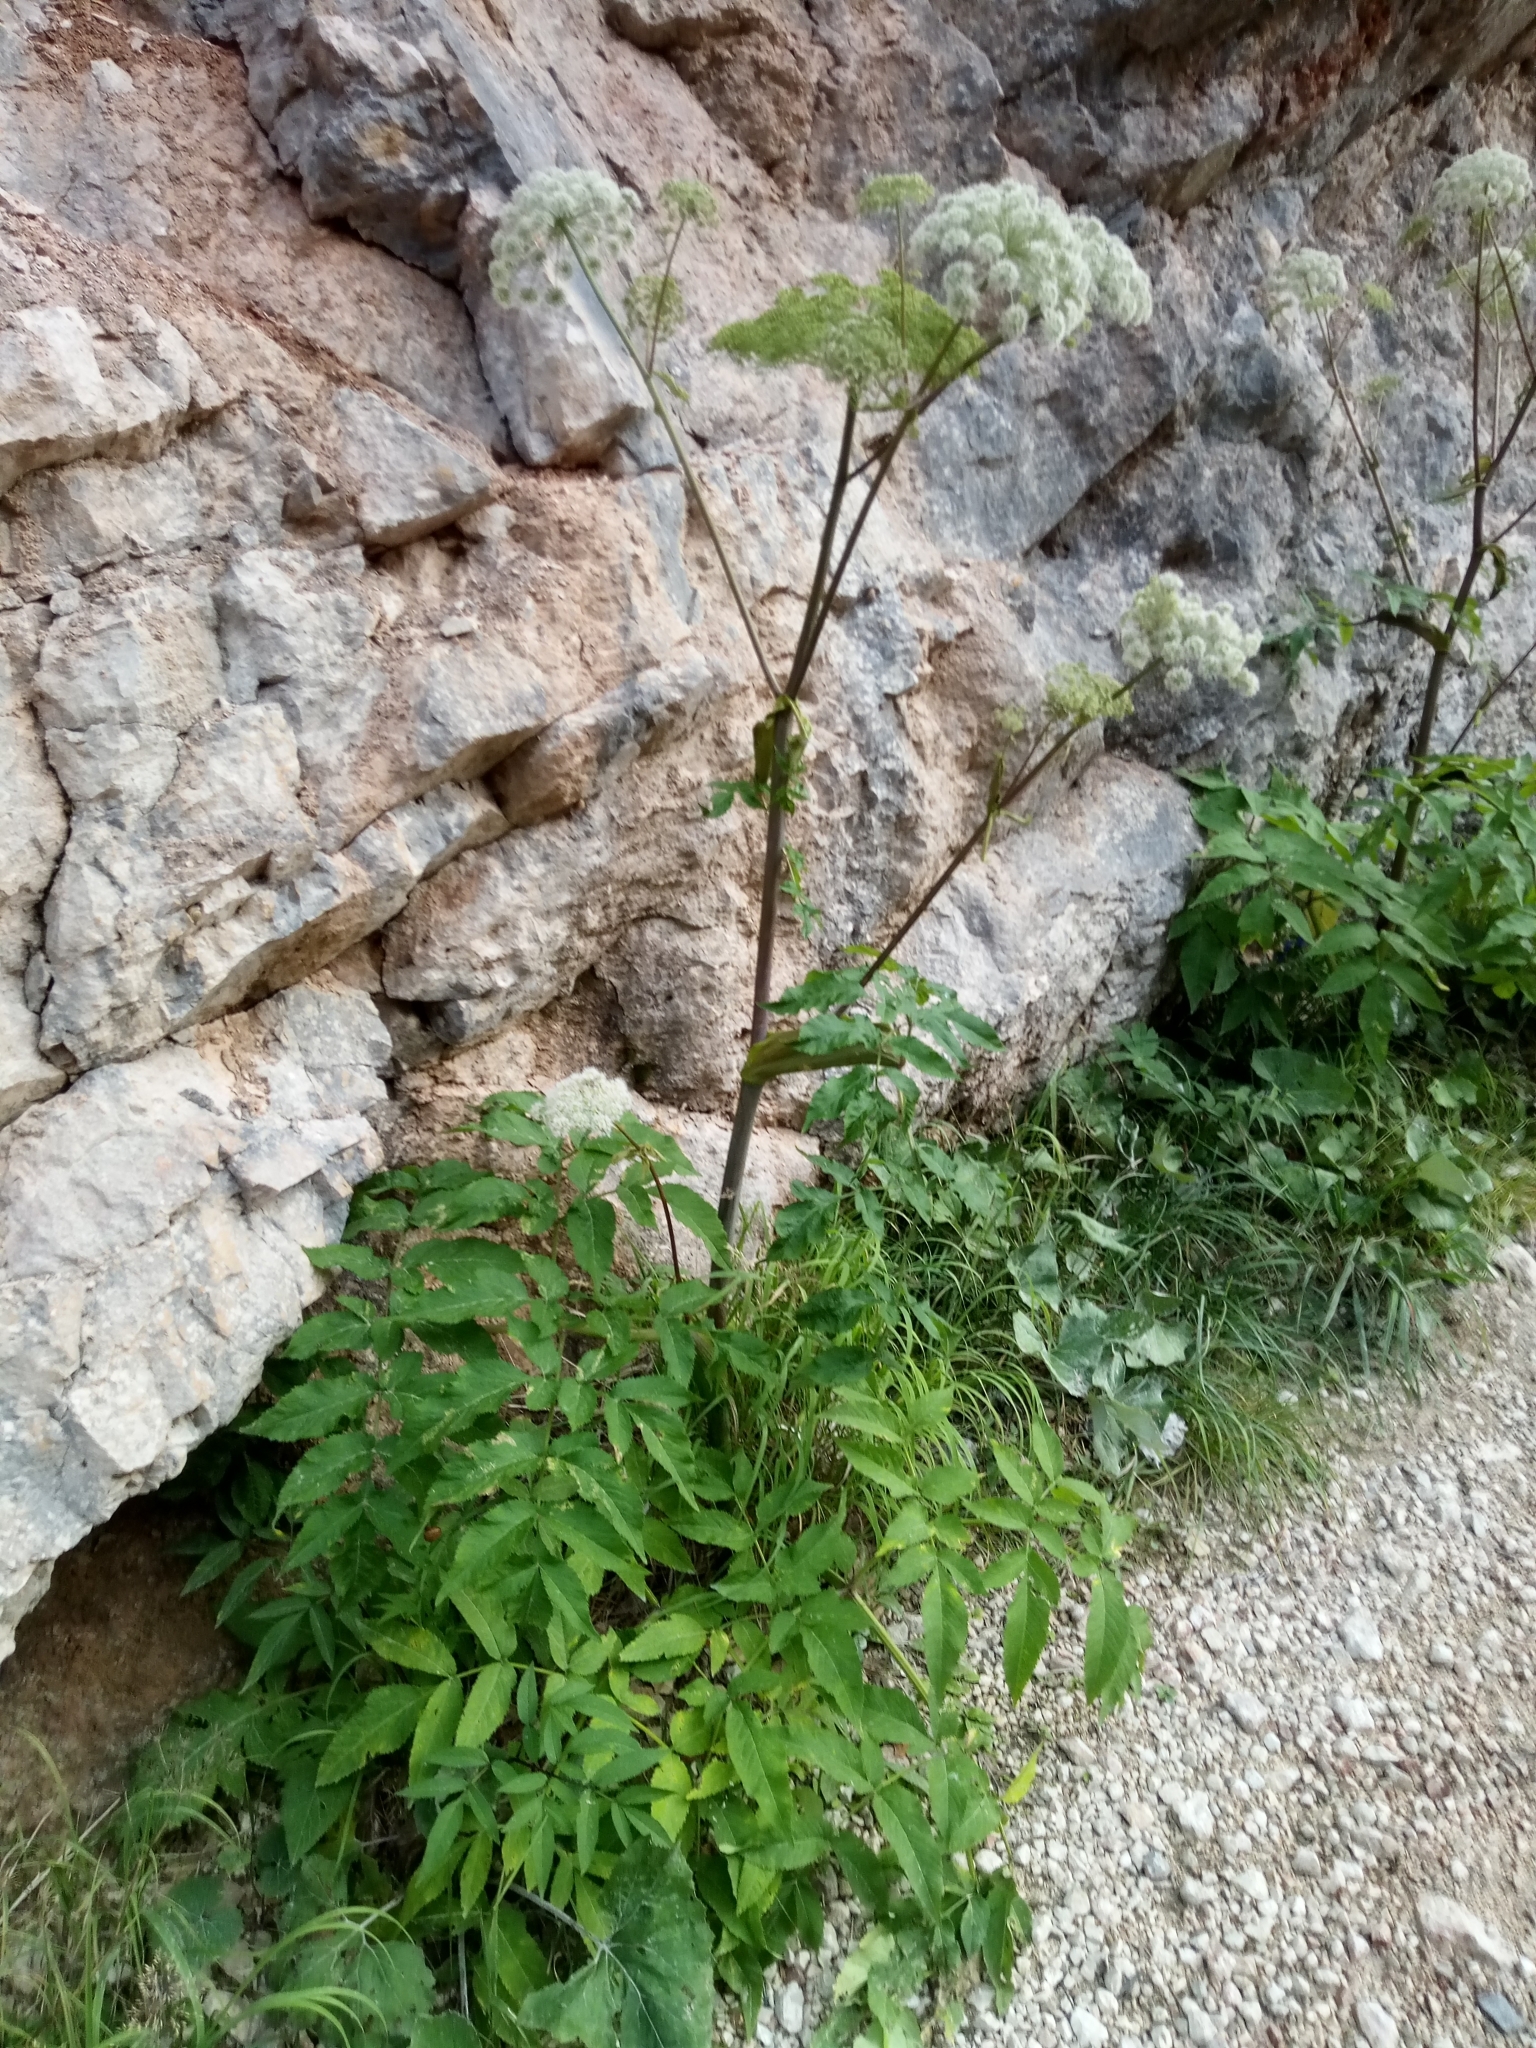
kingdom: Plantae
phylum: Tracheophyta
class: Magnoliopsida
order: Apiales
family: Apiaceae
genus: Angelica
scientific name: Angelica sylvestris
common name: Wild angelica
